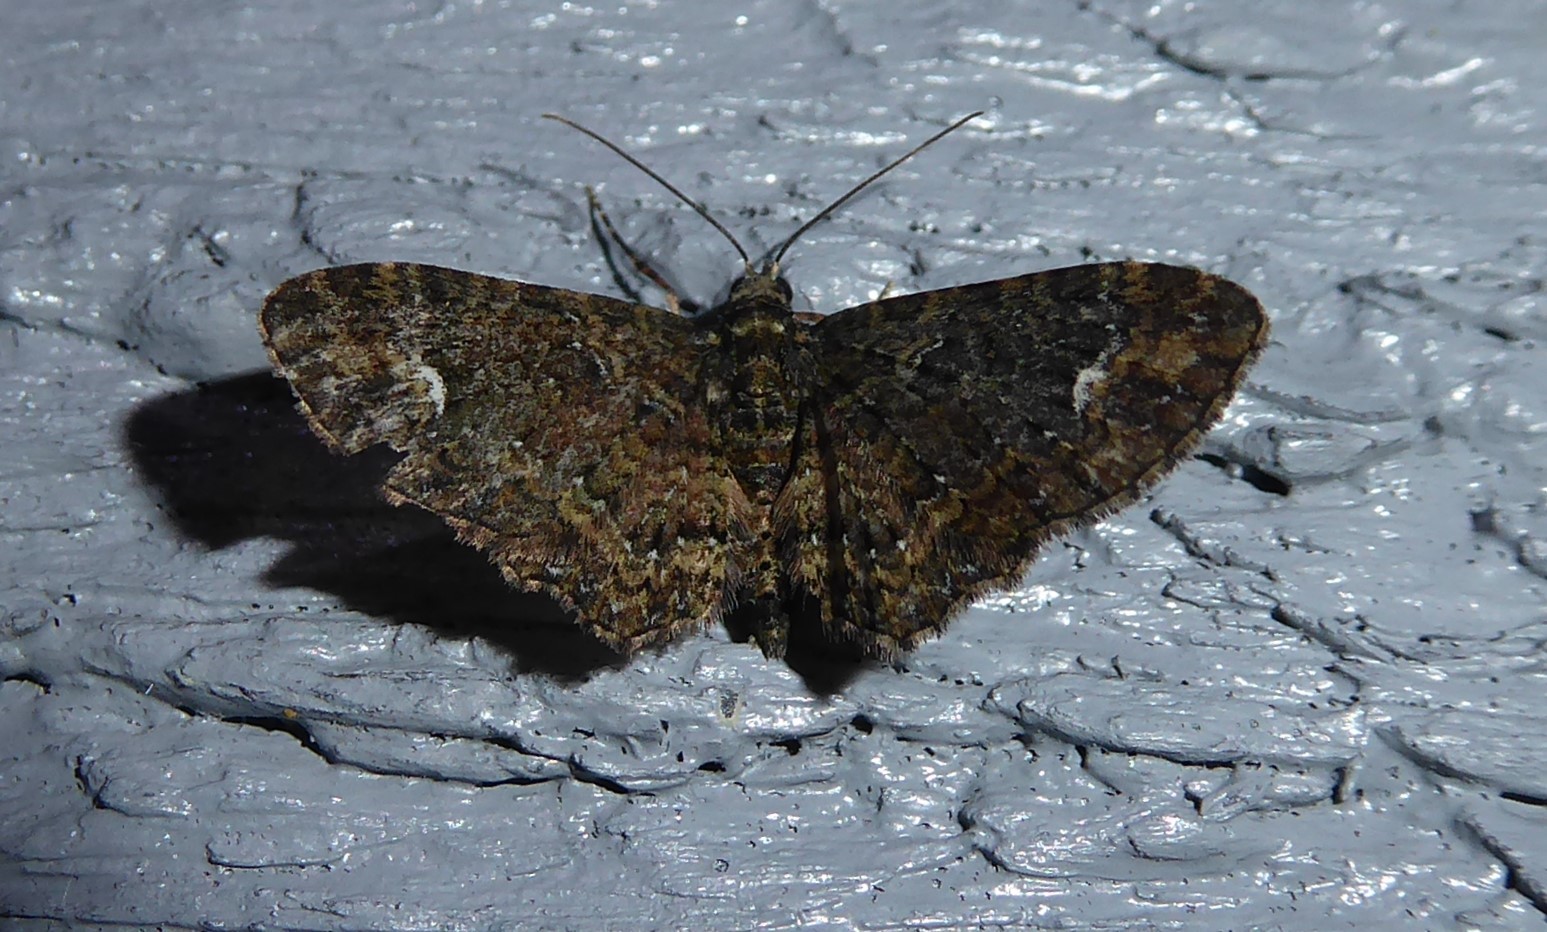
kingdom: Animalia
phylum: Arthropoda
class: Insecta
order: Lepidoptera
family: Geometridae
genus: Pasiphilodes
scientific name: Pasiphilodes testulata
